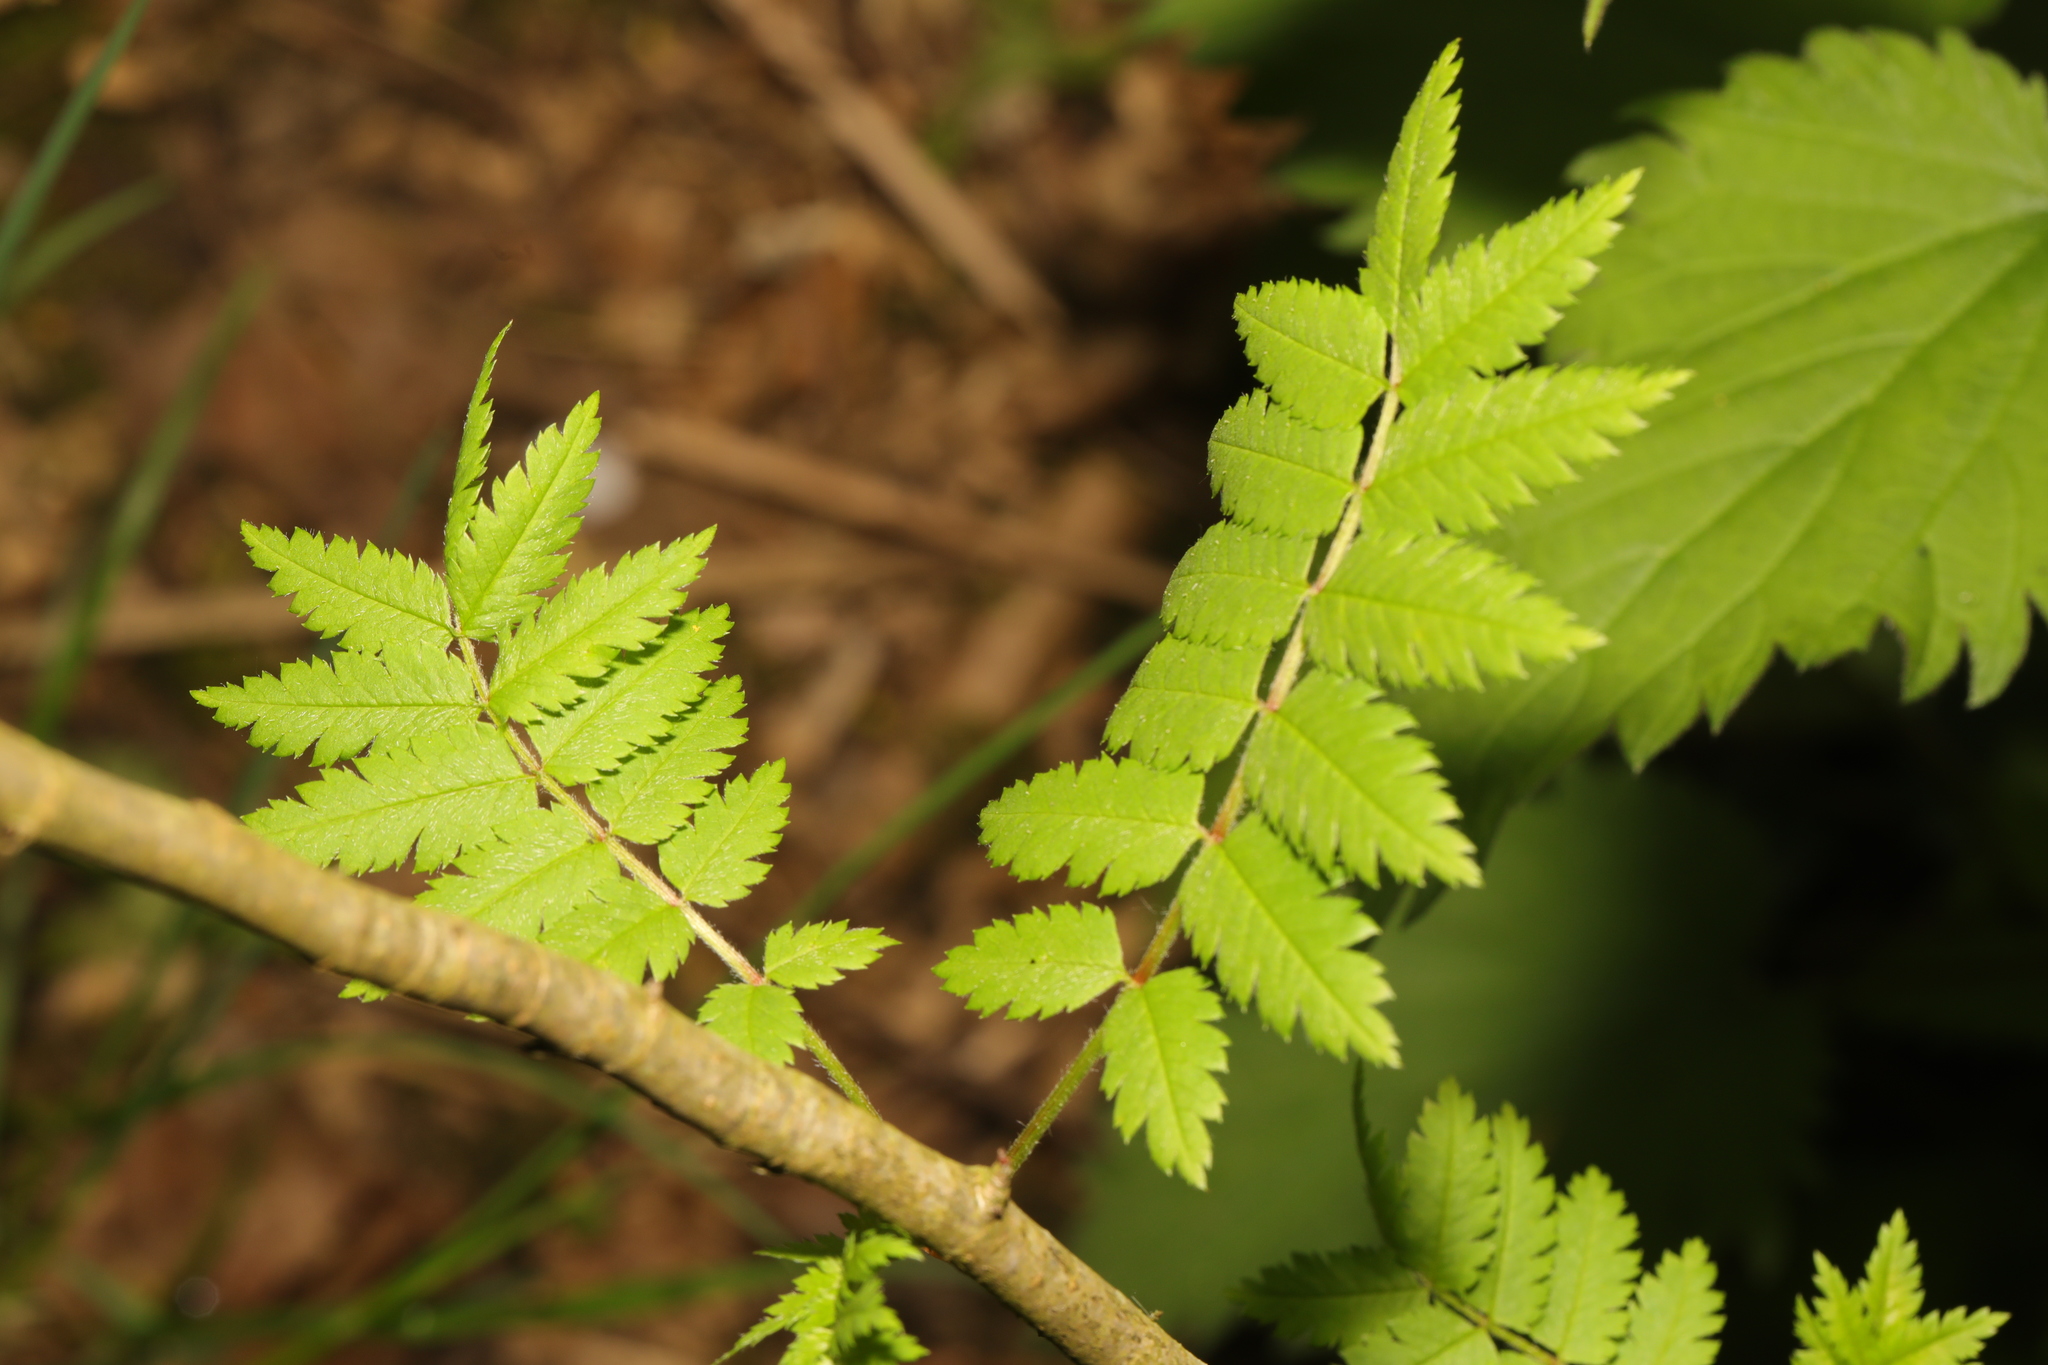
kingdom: Plantae
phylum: Tracheophyta
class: Magnoliopsida
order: Rosales
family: Rosaceae
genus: Sorbus
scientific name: Sorbus aucuparia
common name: Rowan
